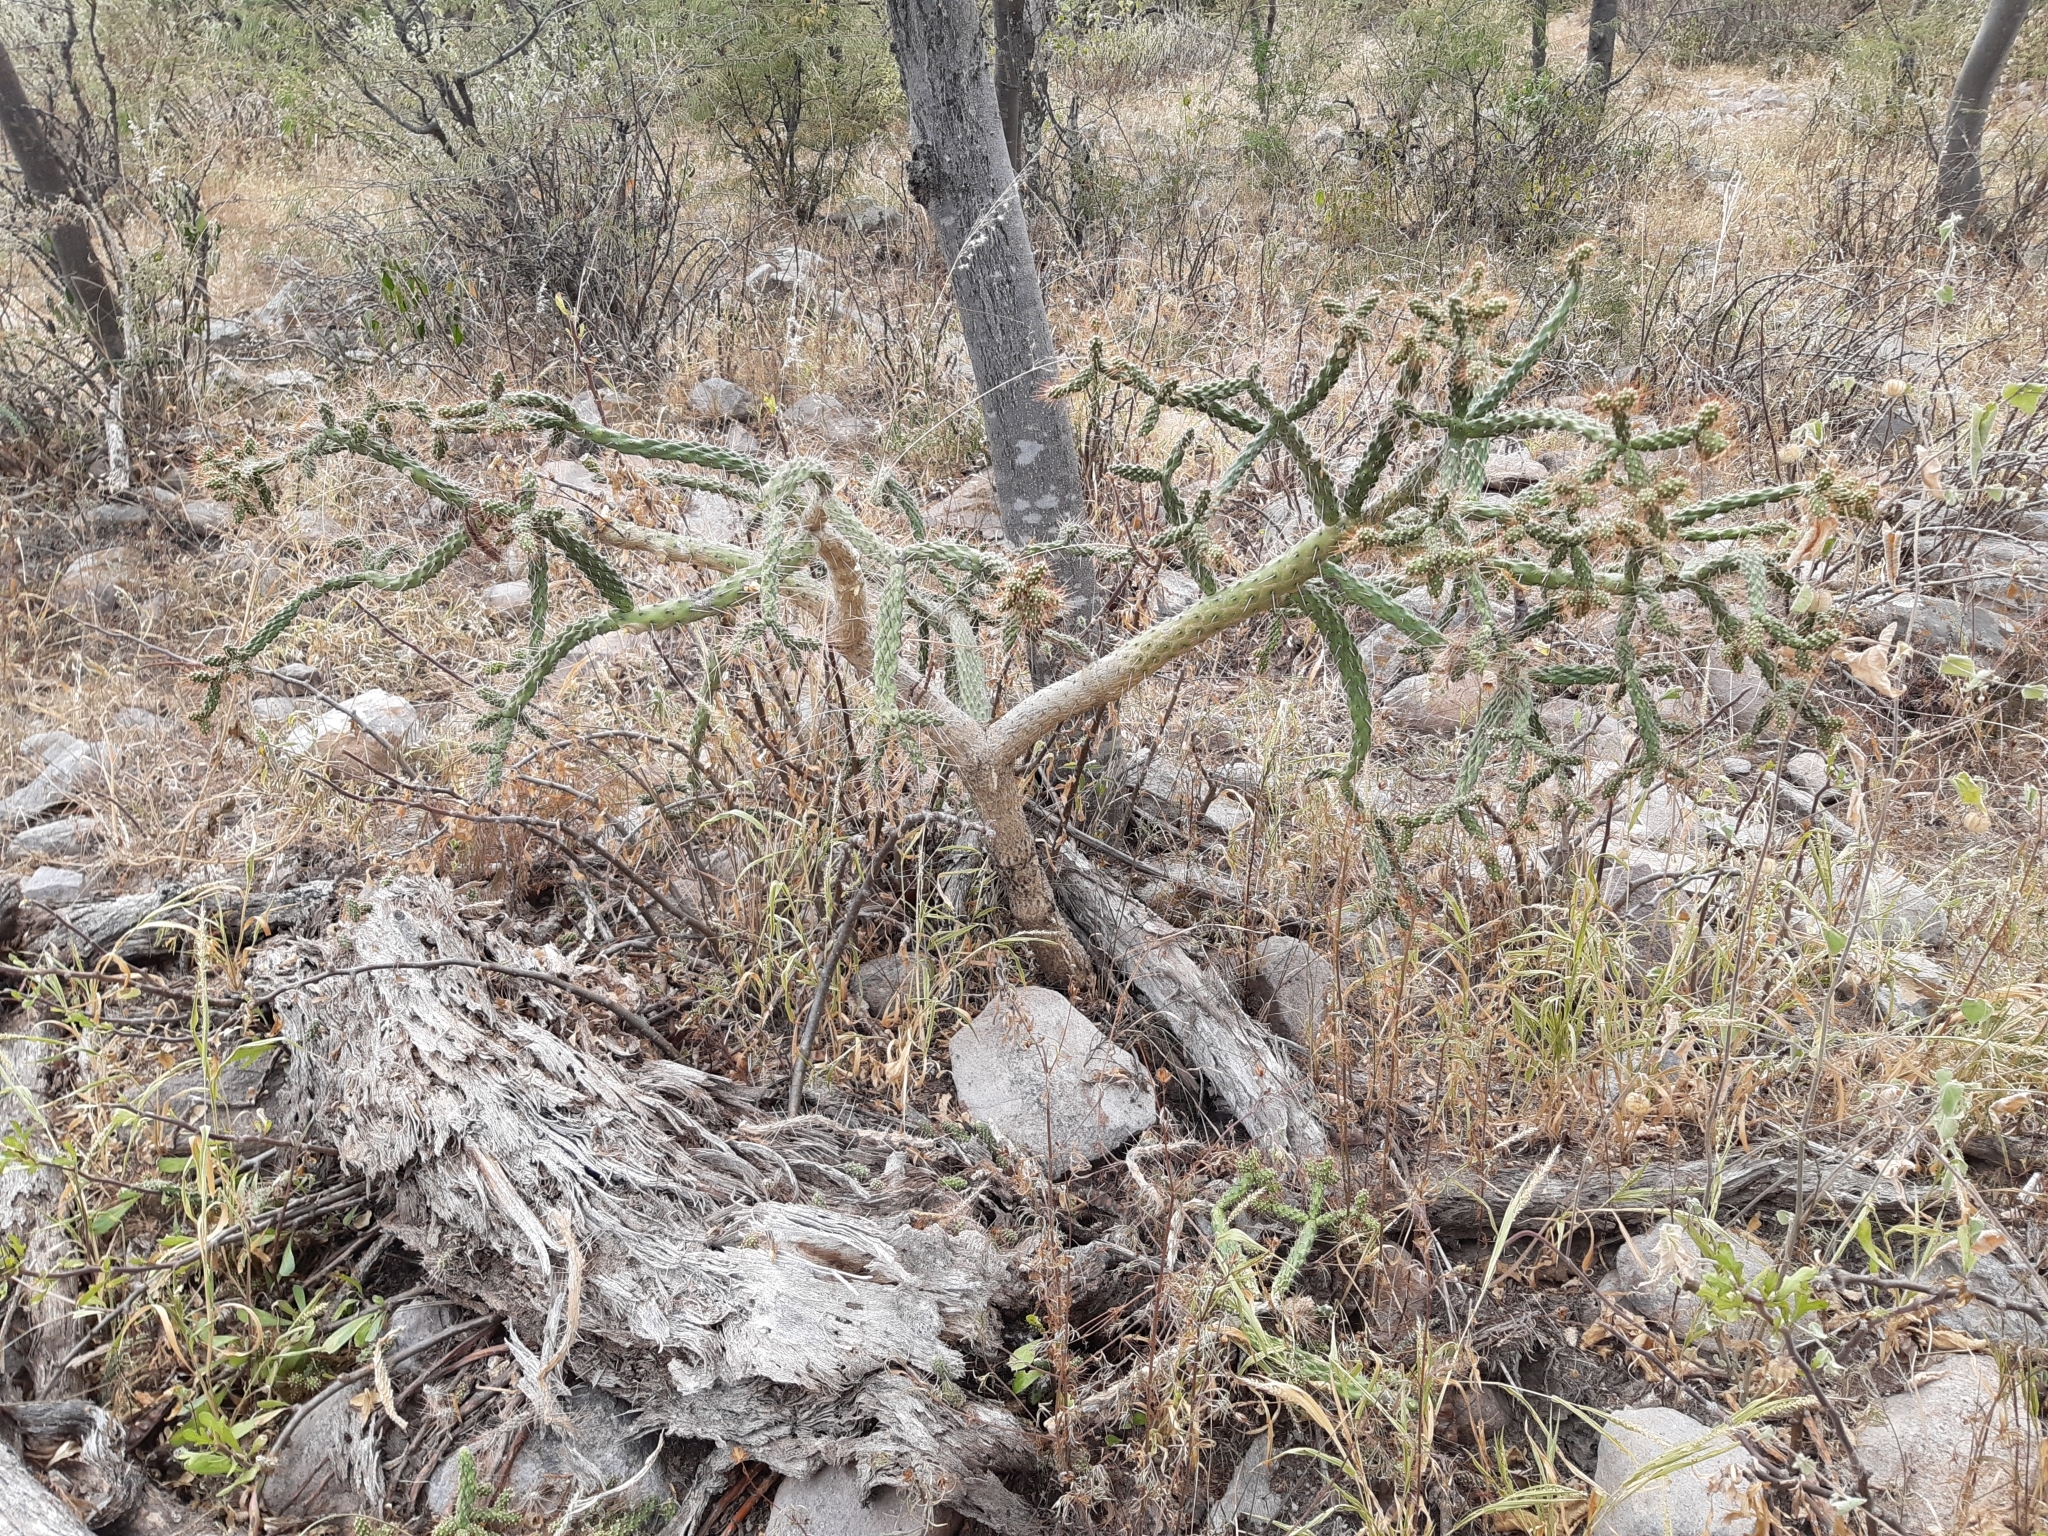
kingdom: Plantae
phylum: Tracheophyta
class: Magnoliopsida
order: Caryophyllales
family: Cactaceae
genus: Opuntia
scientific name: Opuntia pubescens
